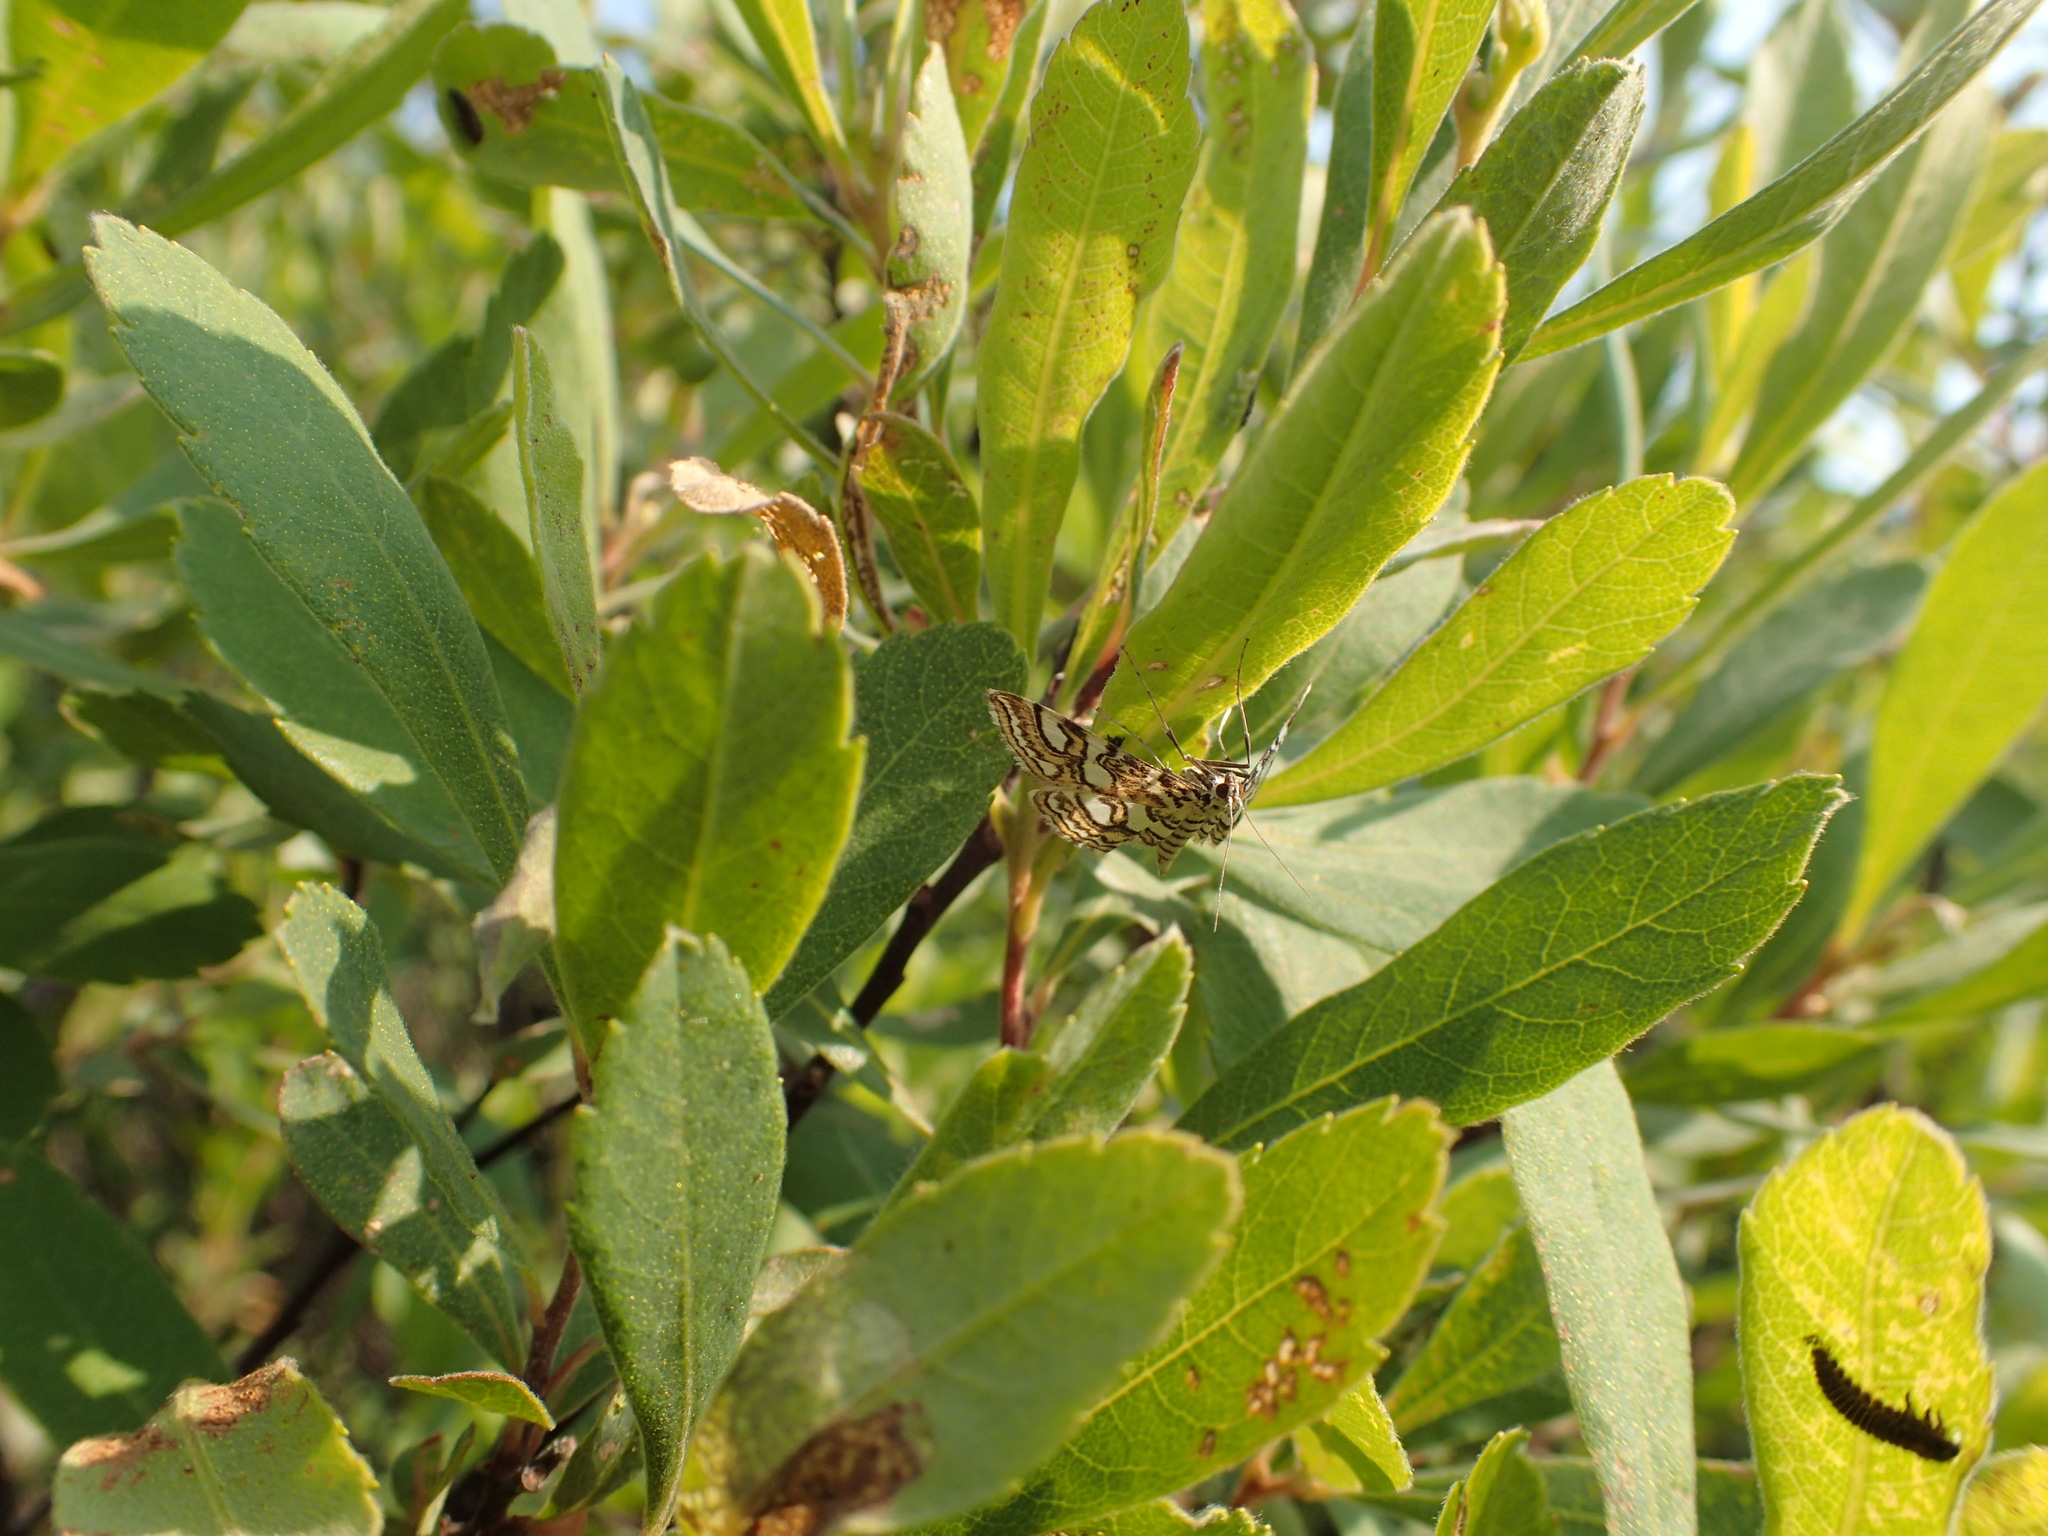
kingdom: Animalia
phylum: Arthropoda
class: Insecta
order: Lepidoptera
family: Crambidae
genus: Elophila
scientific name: Elophila ekthlipsis
